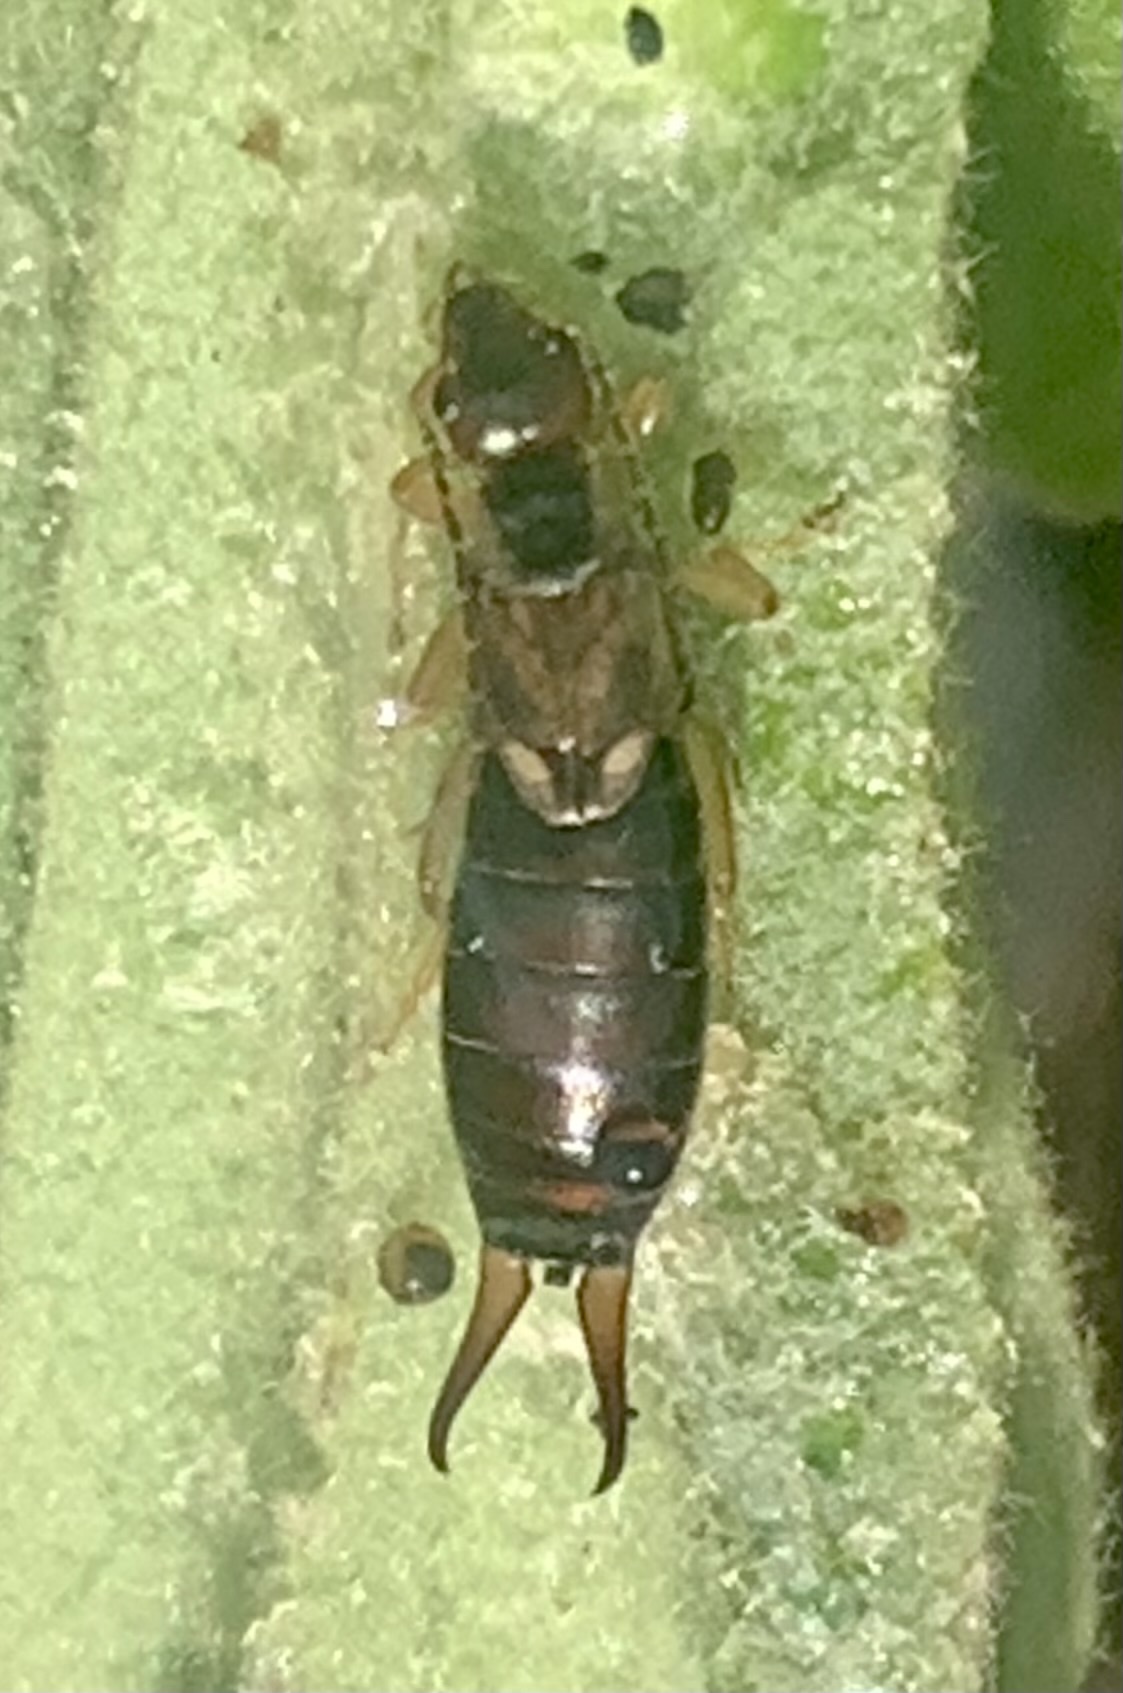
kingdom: Animalia
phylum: Arthropoda
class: Insecta
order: Dermaptera
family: Forficulidae
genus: Forficula
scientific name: Forficula
